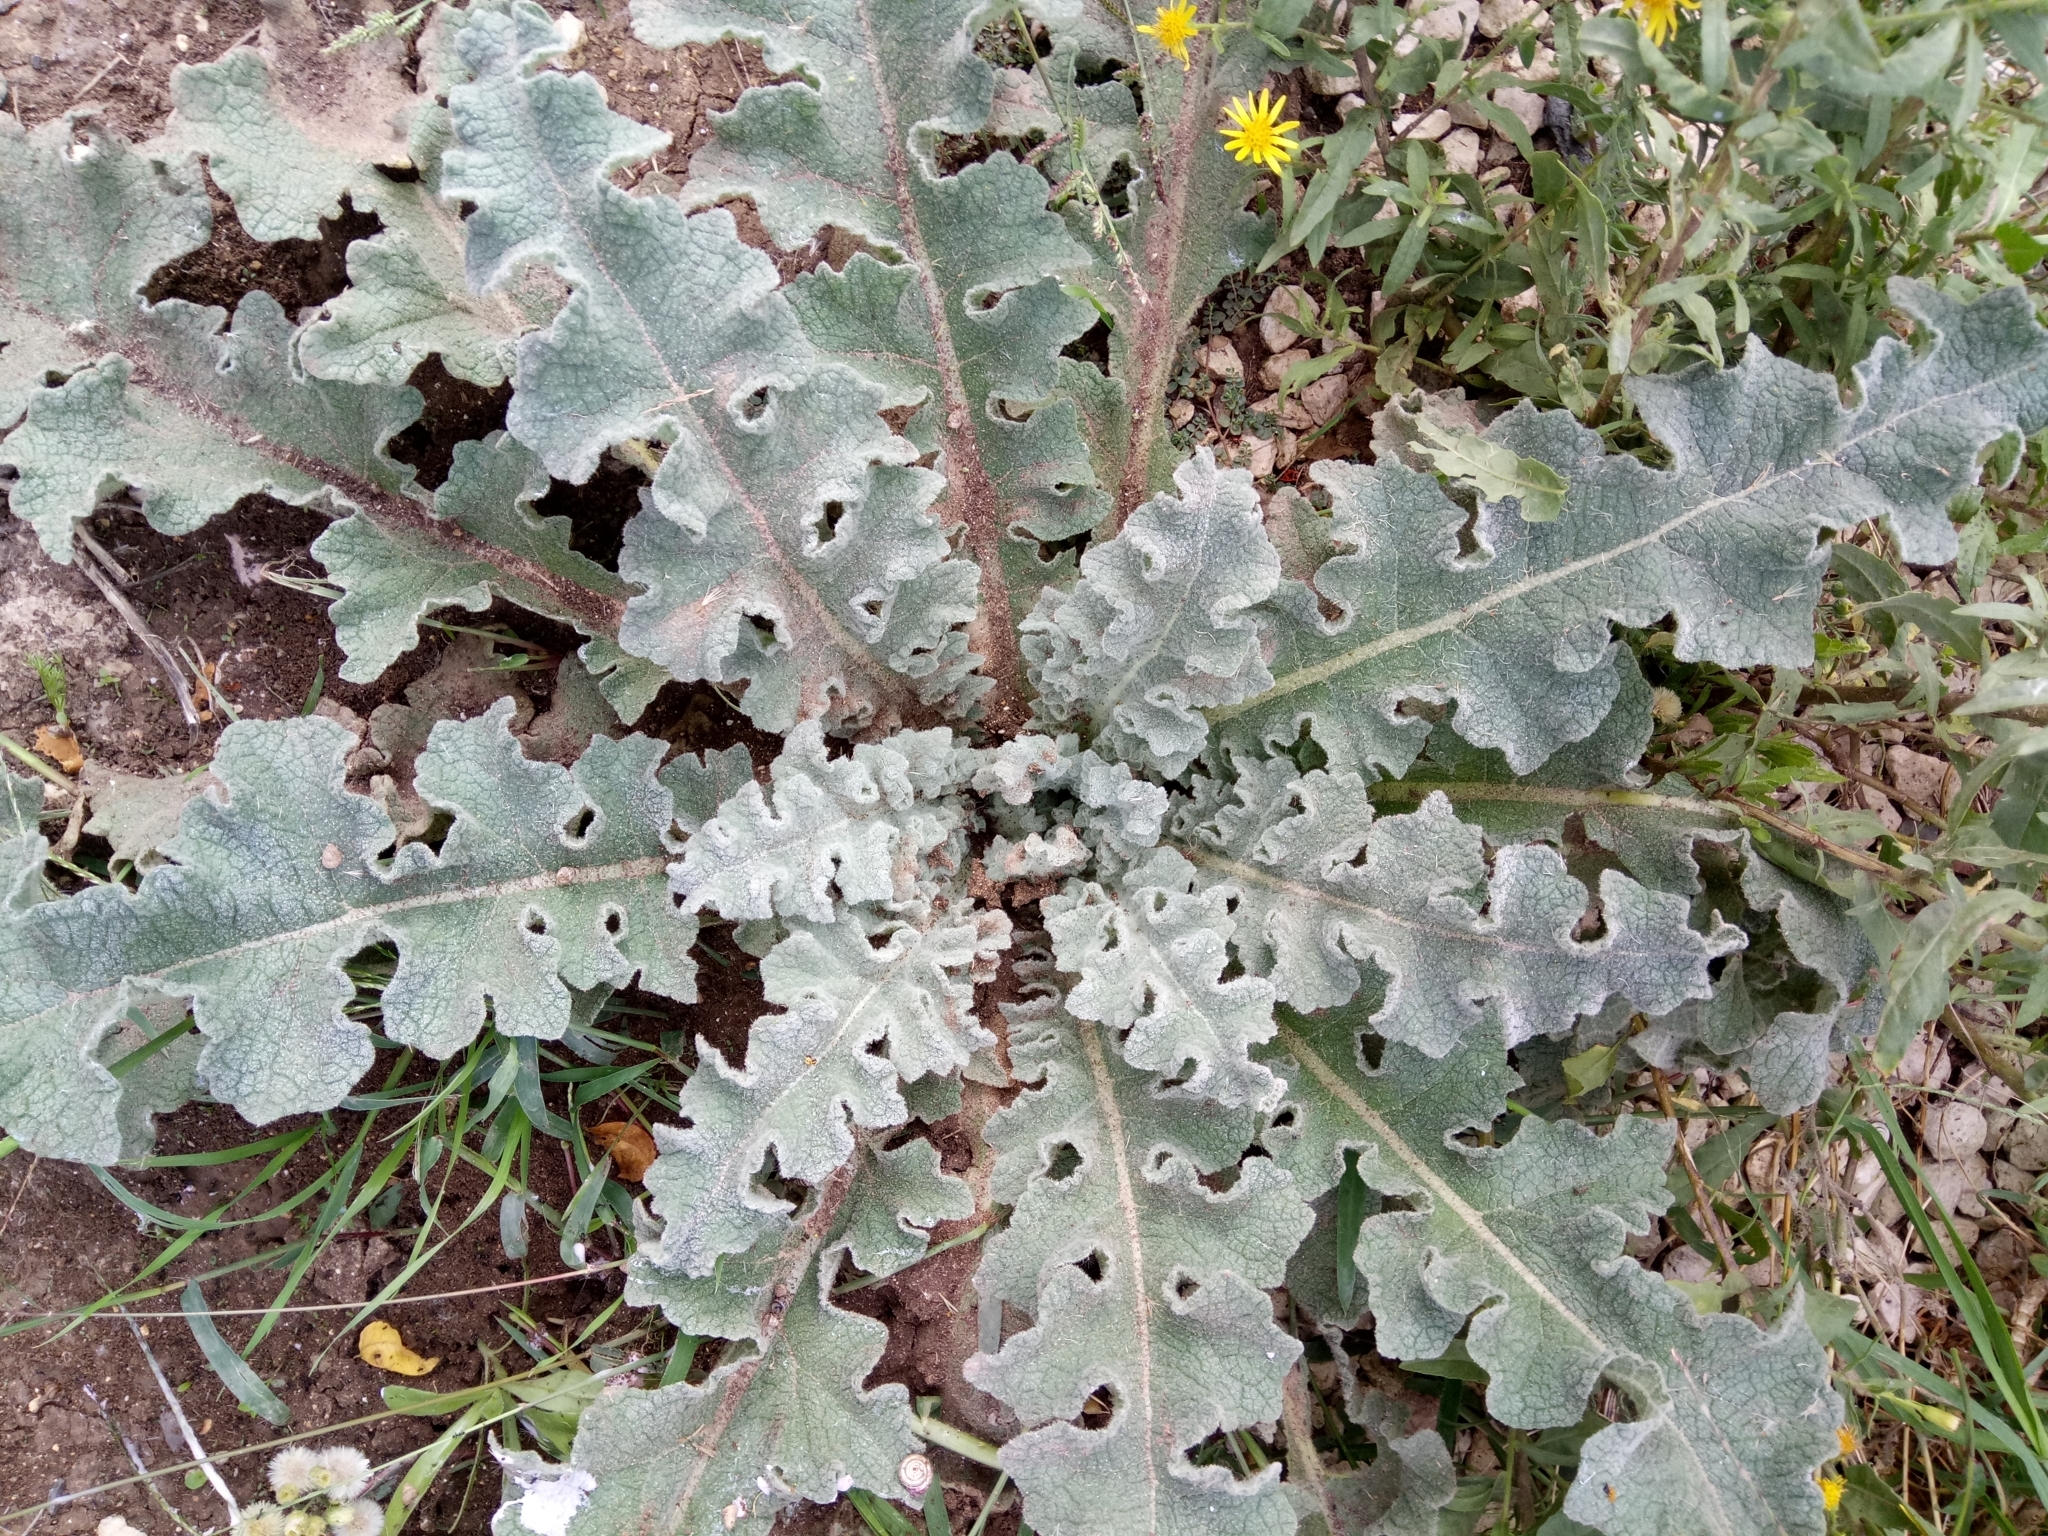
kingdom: Plantae
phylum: Tracheophyta
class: Magnoliopsida
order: Lamiales
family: Scrophulariaceae
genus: Verbascum
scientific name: Verbascum sinuatum
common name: Wavyleaf mullein
